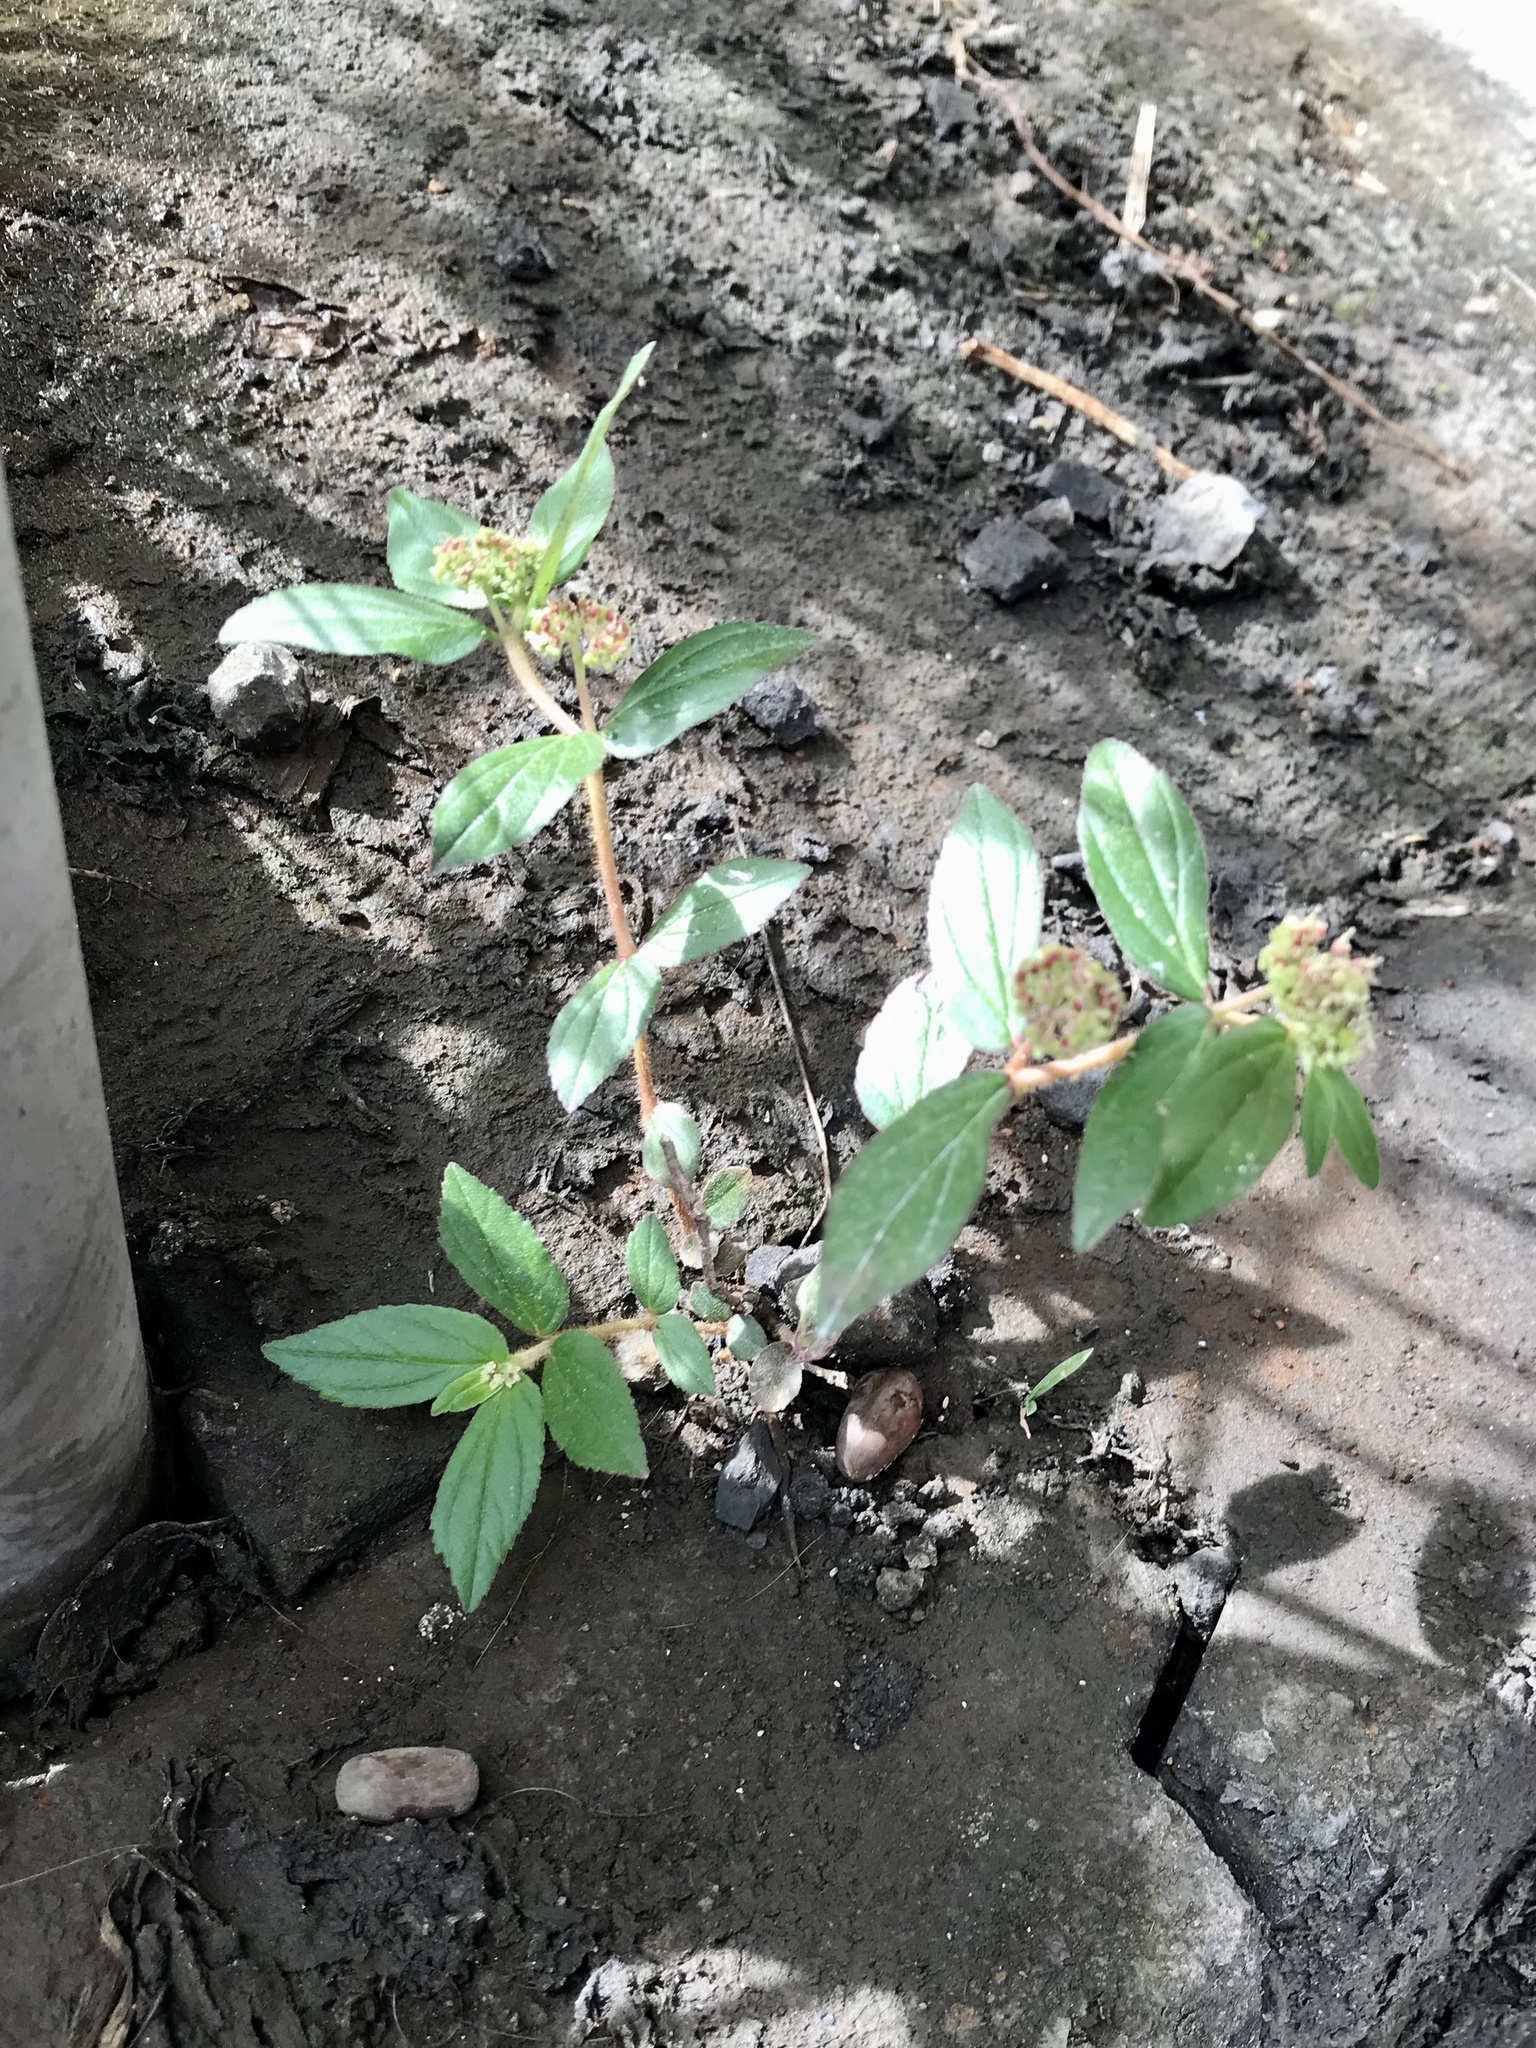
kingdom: Plantae
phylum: Tracheophyta
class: Magnoliopsida
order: Malpighiales
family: Euphorbiaceae
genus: Euphorbia
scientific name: Euphorbia hirta
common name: Pillpod sandmat
